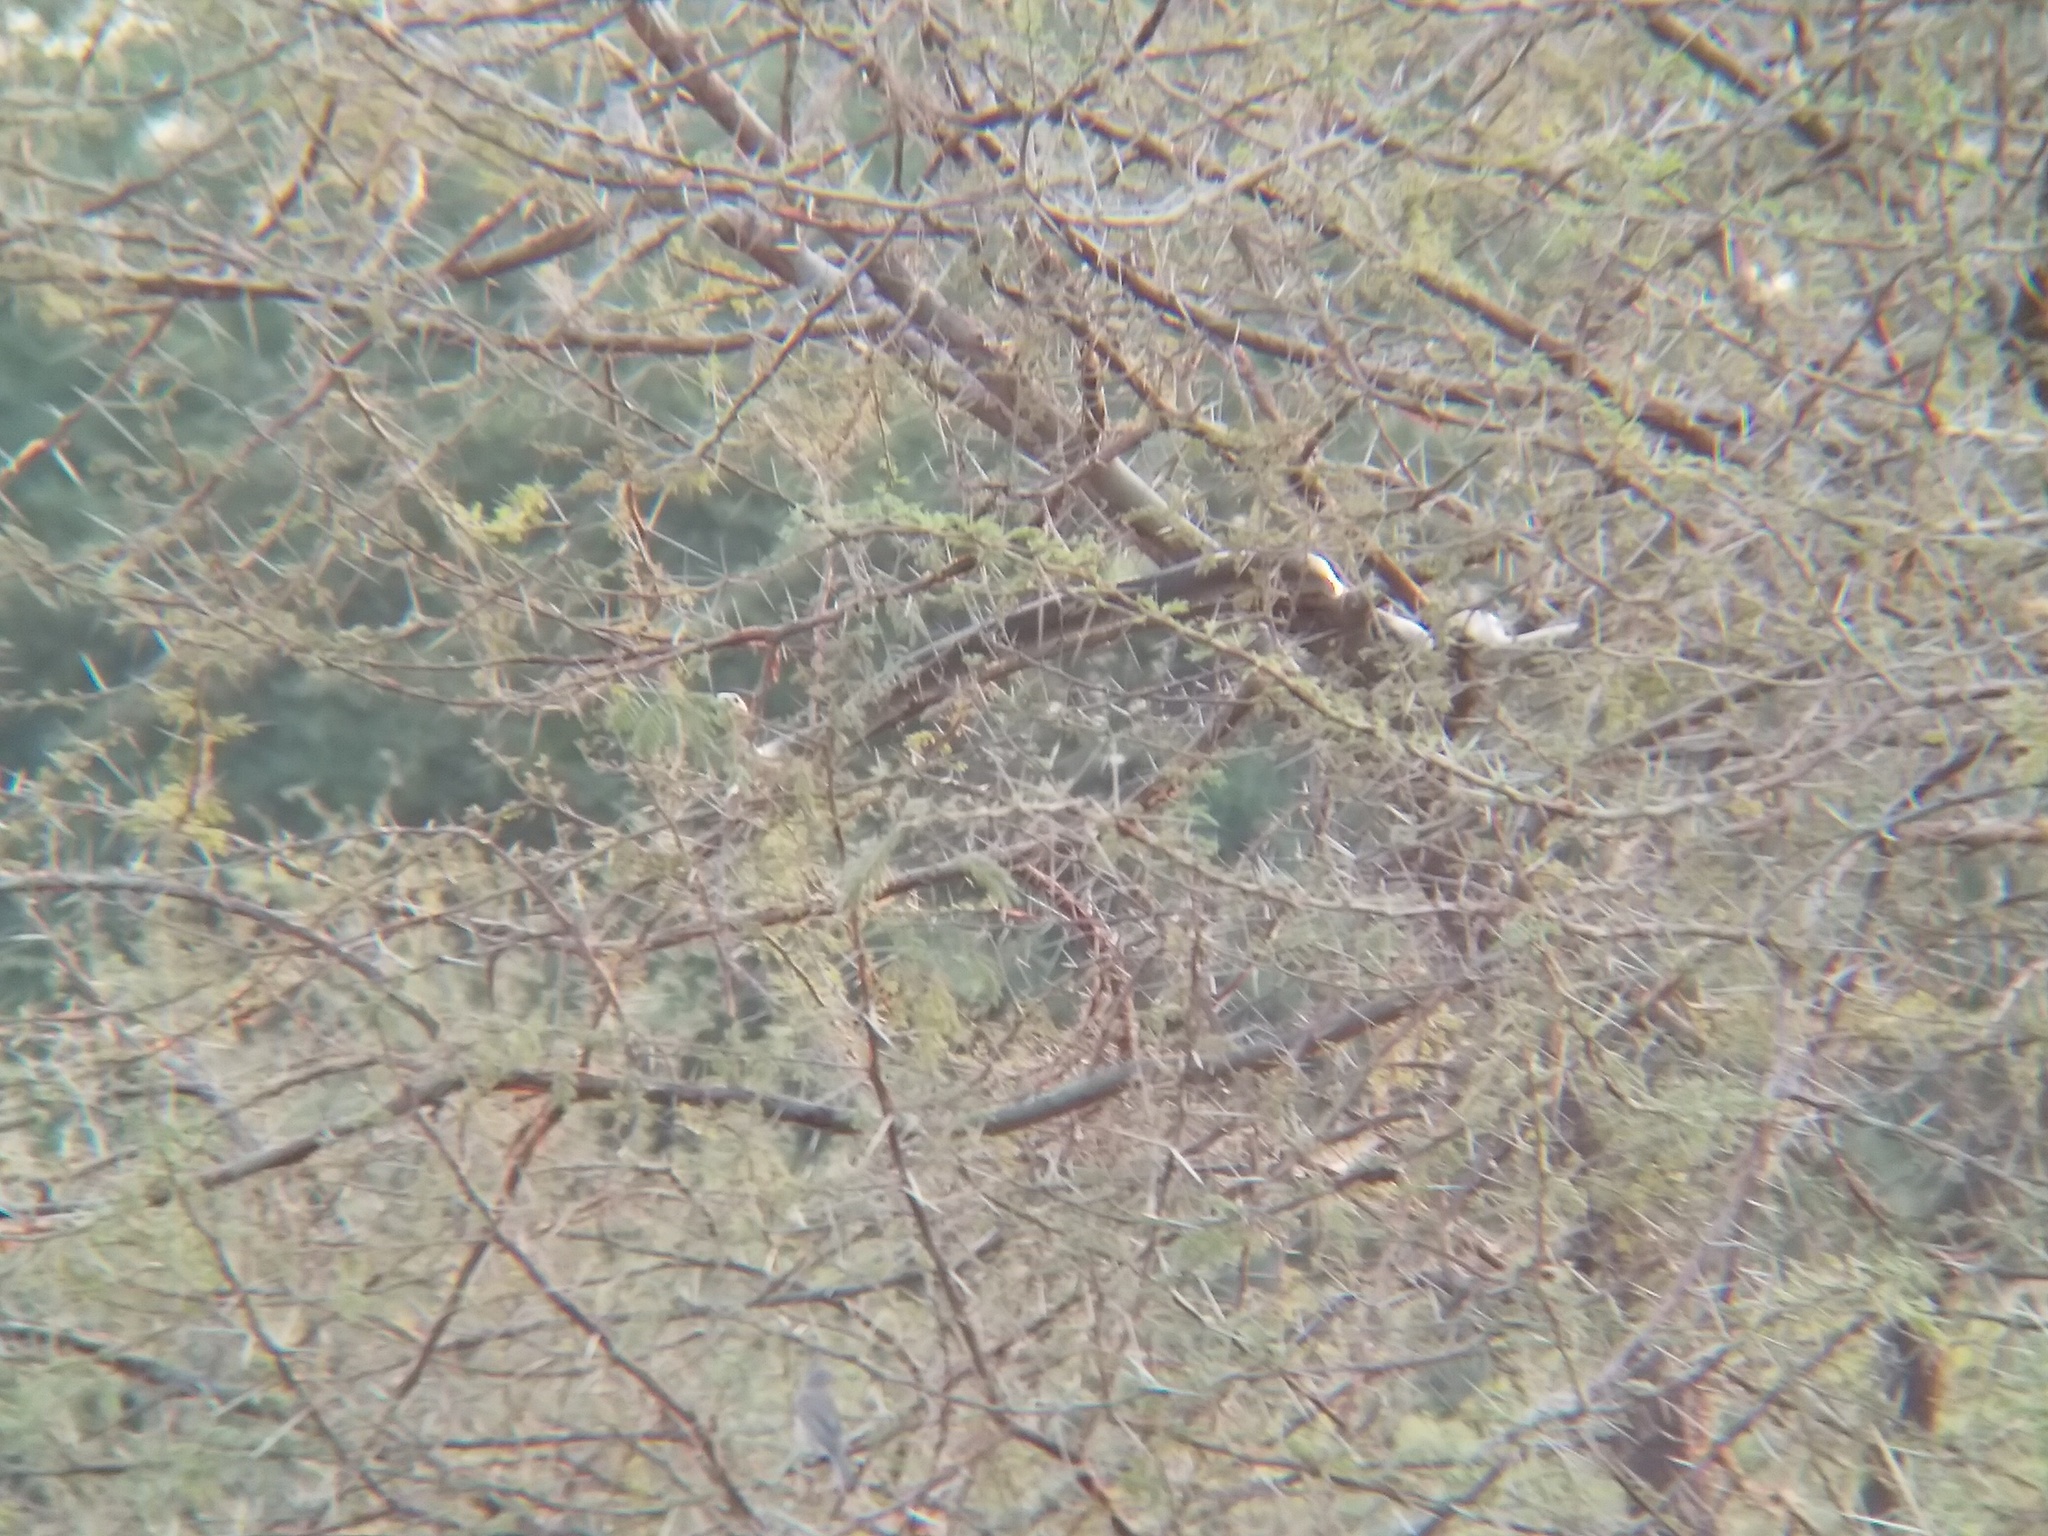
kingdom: Animalia
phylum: Chordata
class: Squamata
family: Colubridae
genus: Ptyas
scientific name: Ptyas mucosa
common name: Oriental ratsnake
